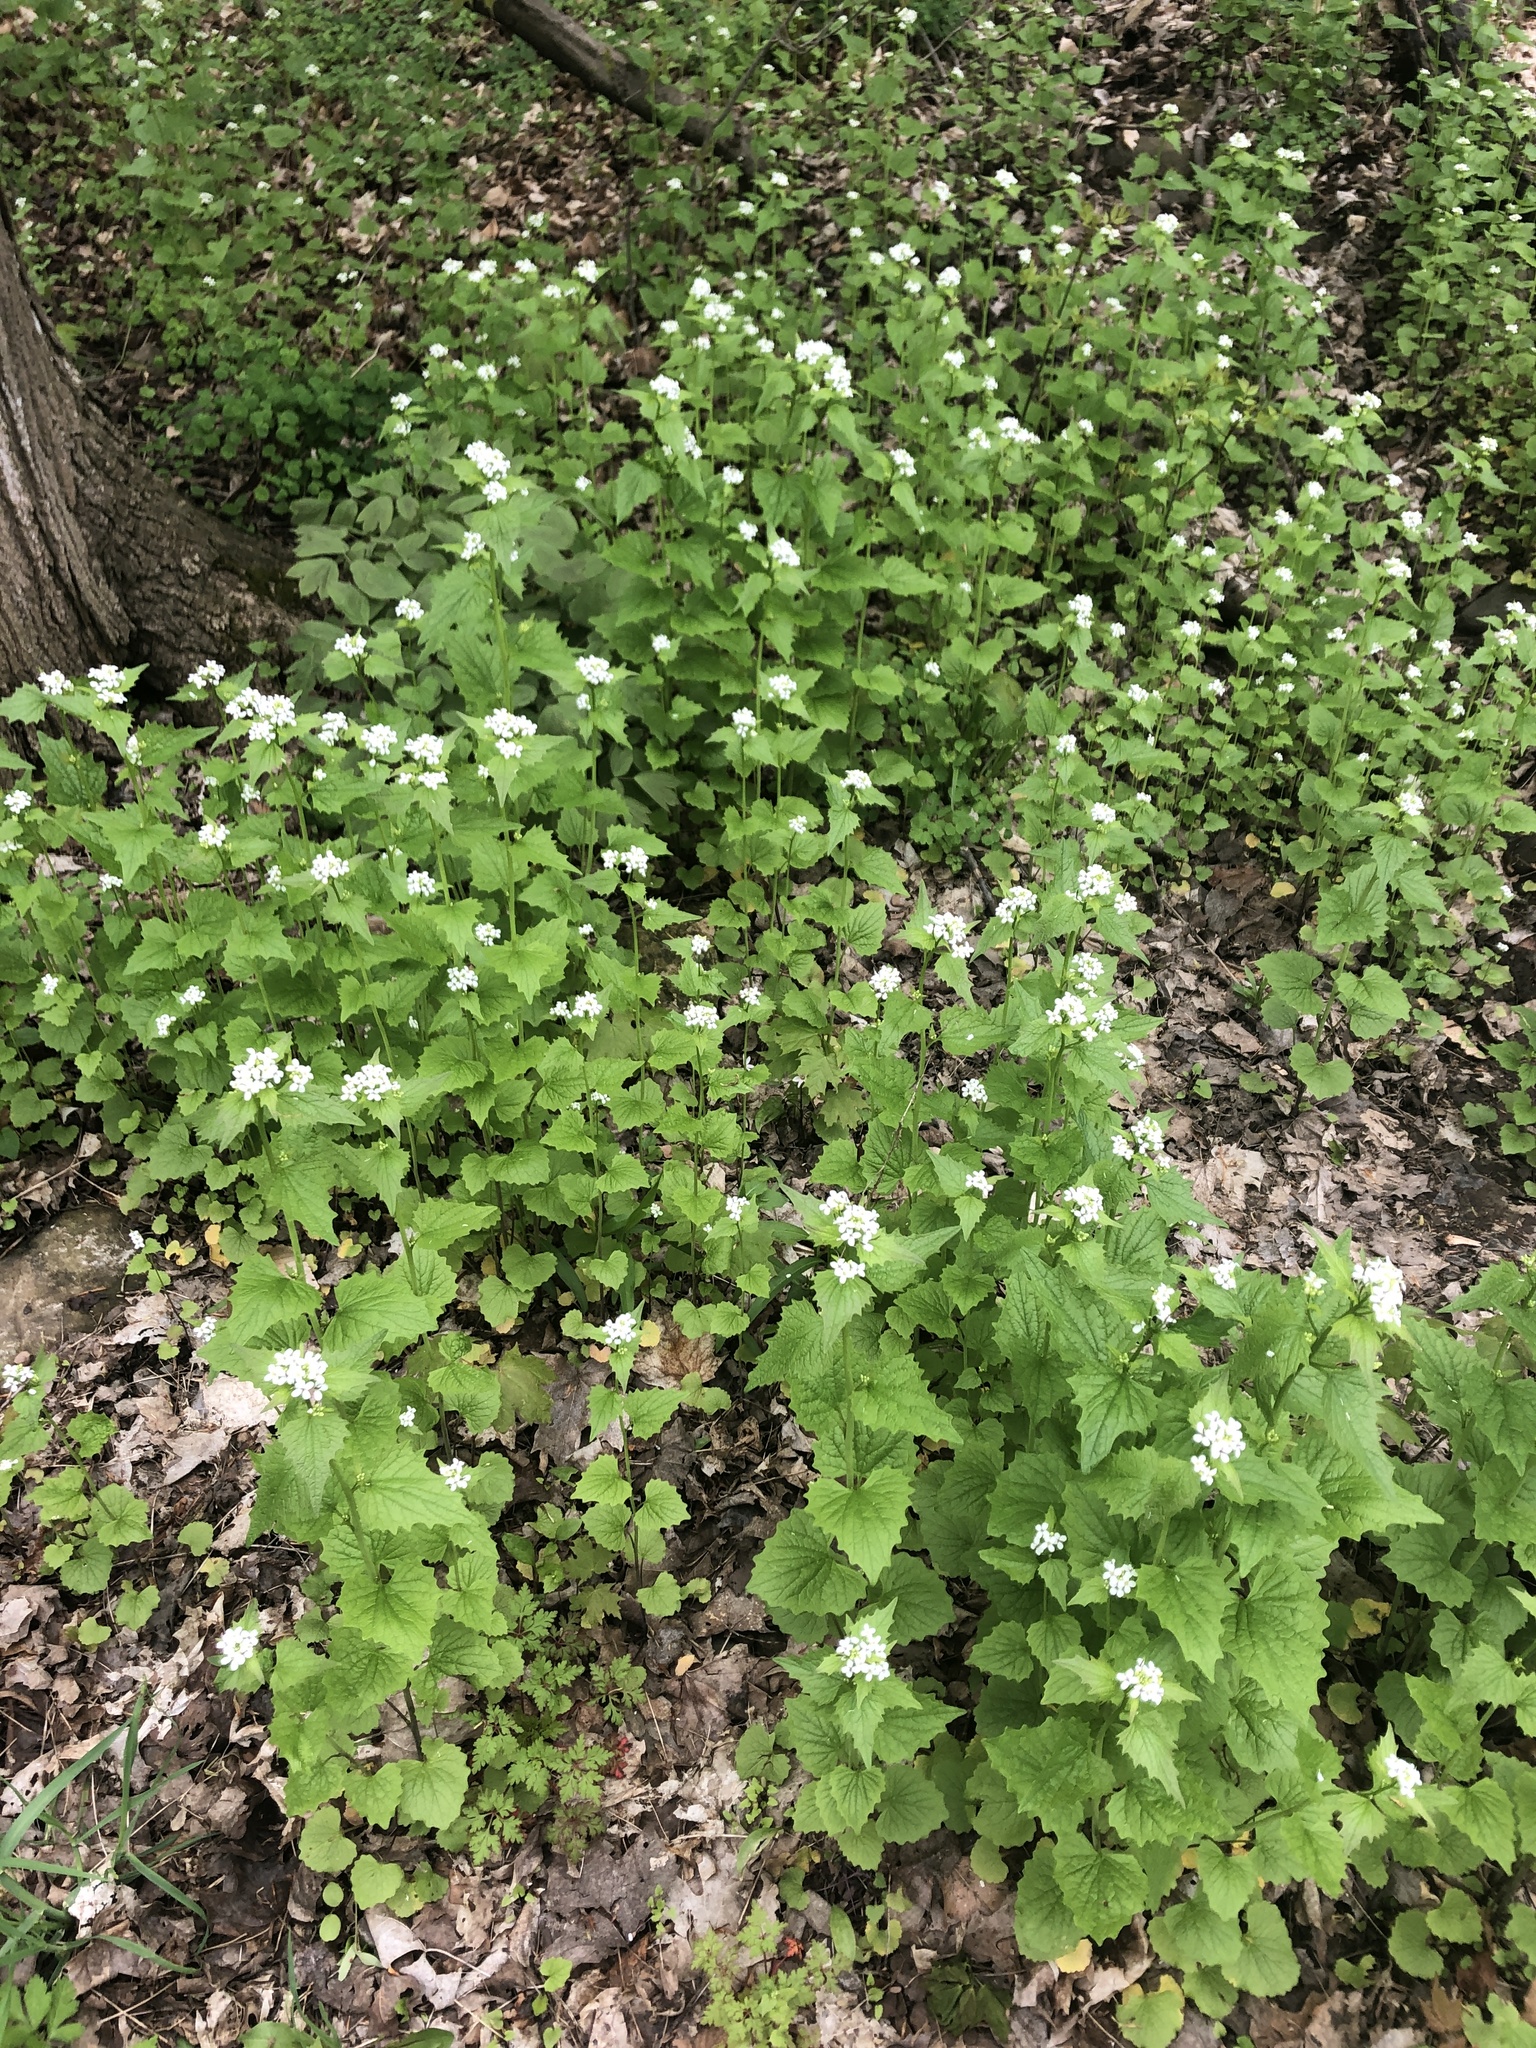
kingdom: Plantae
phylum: Tracheophyta
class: Magnoliopsida
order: Brassicales
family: Brassicaceae
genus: Alliaria
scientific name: Alliaria petiolata
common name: Garlic mustard
